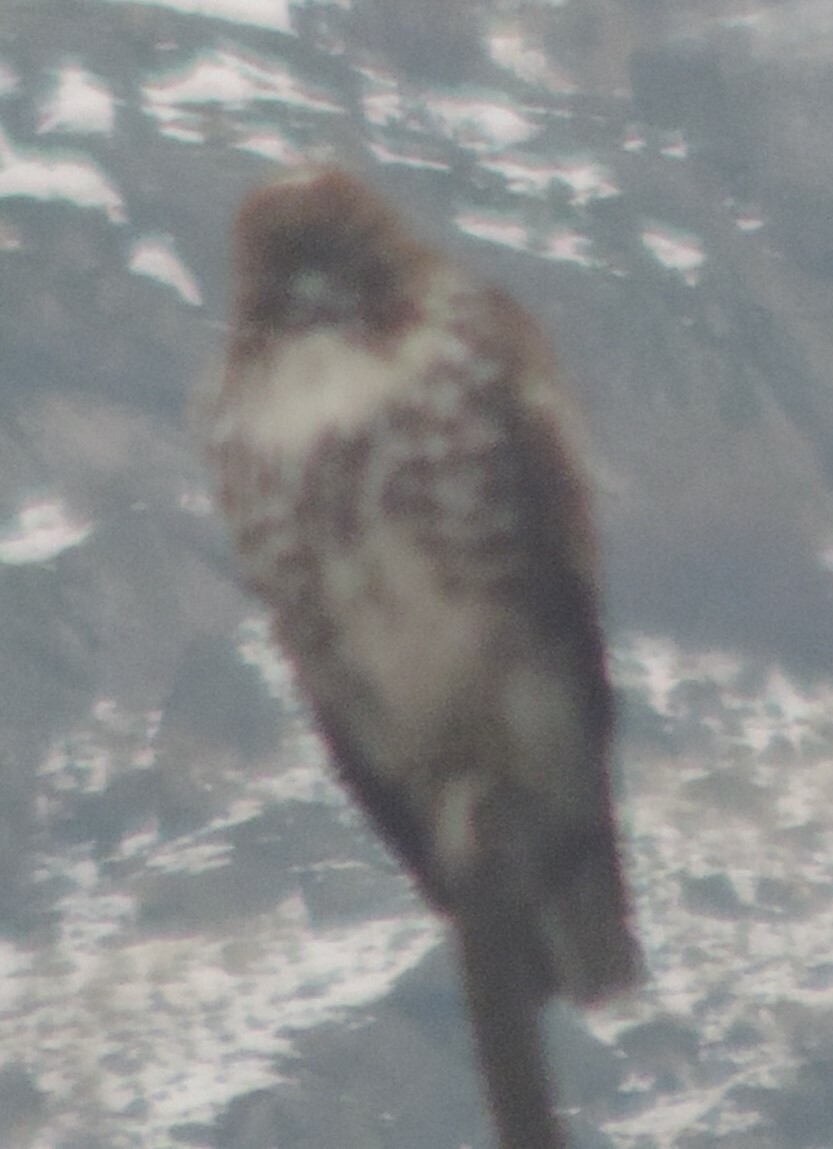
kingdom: Animalia
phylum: Chordata
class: Aves
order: Accipitriformes
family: Accipitridae
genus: Buteo
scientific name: Buteo jamaicensis
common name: Red-tailed hawk
